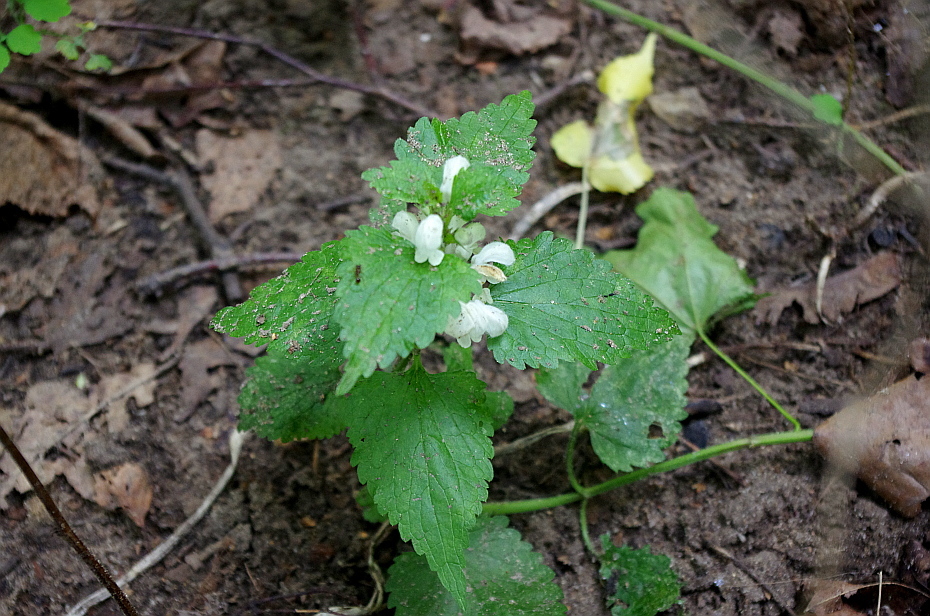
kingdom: Plantae
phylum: Tracheophyta
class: Magnoliopsida
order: Lamiales
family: Lamiaceae
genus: Lamium
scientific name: Lamium album
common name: White dead-nettle
